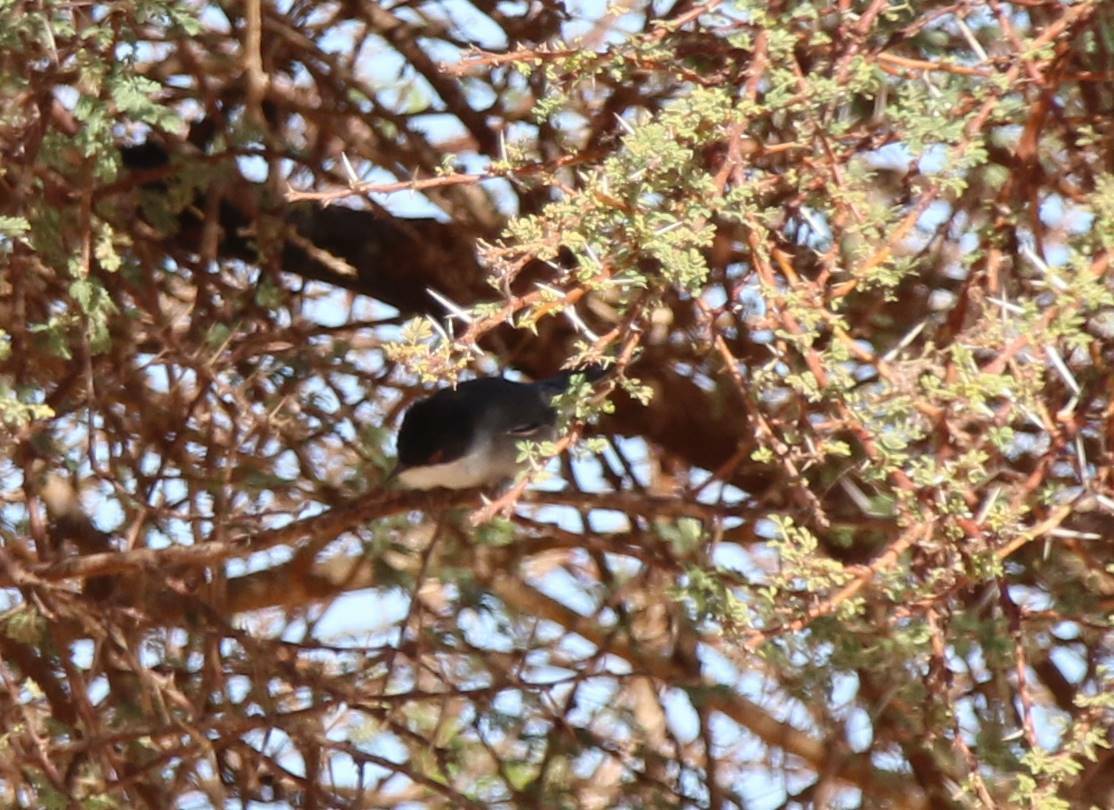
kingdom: Animalia
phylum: Chordata
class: Aves
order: Passeriformes
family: Sylviidae
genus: Curruca
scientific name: Curruca melanocephala
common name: Sardinian warbler
